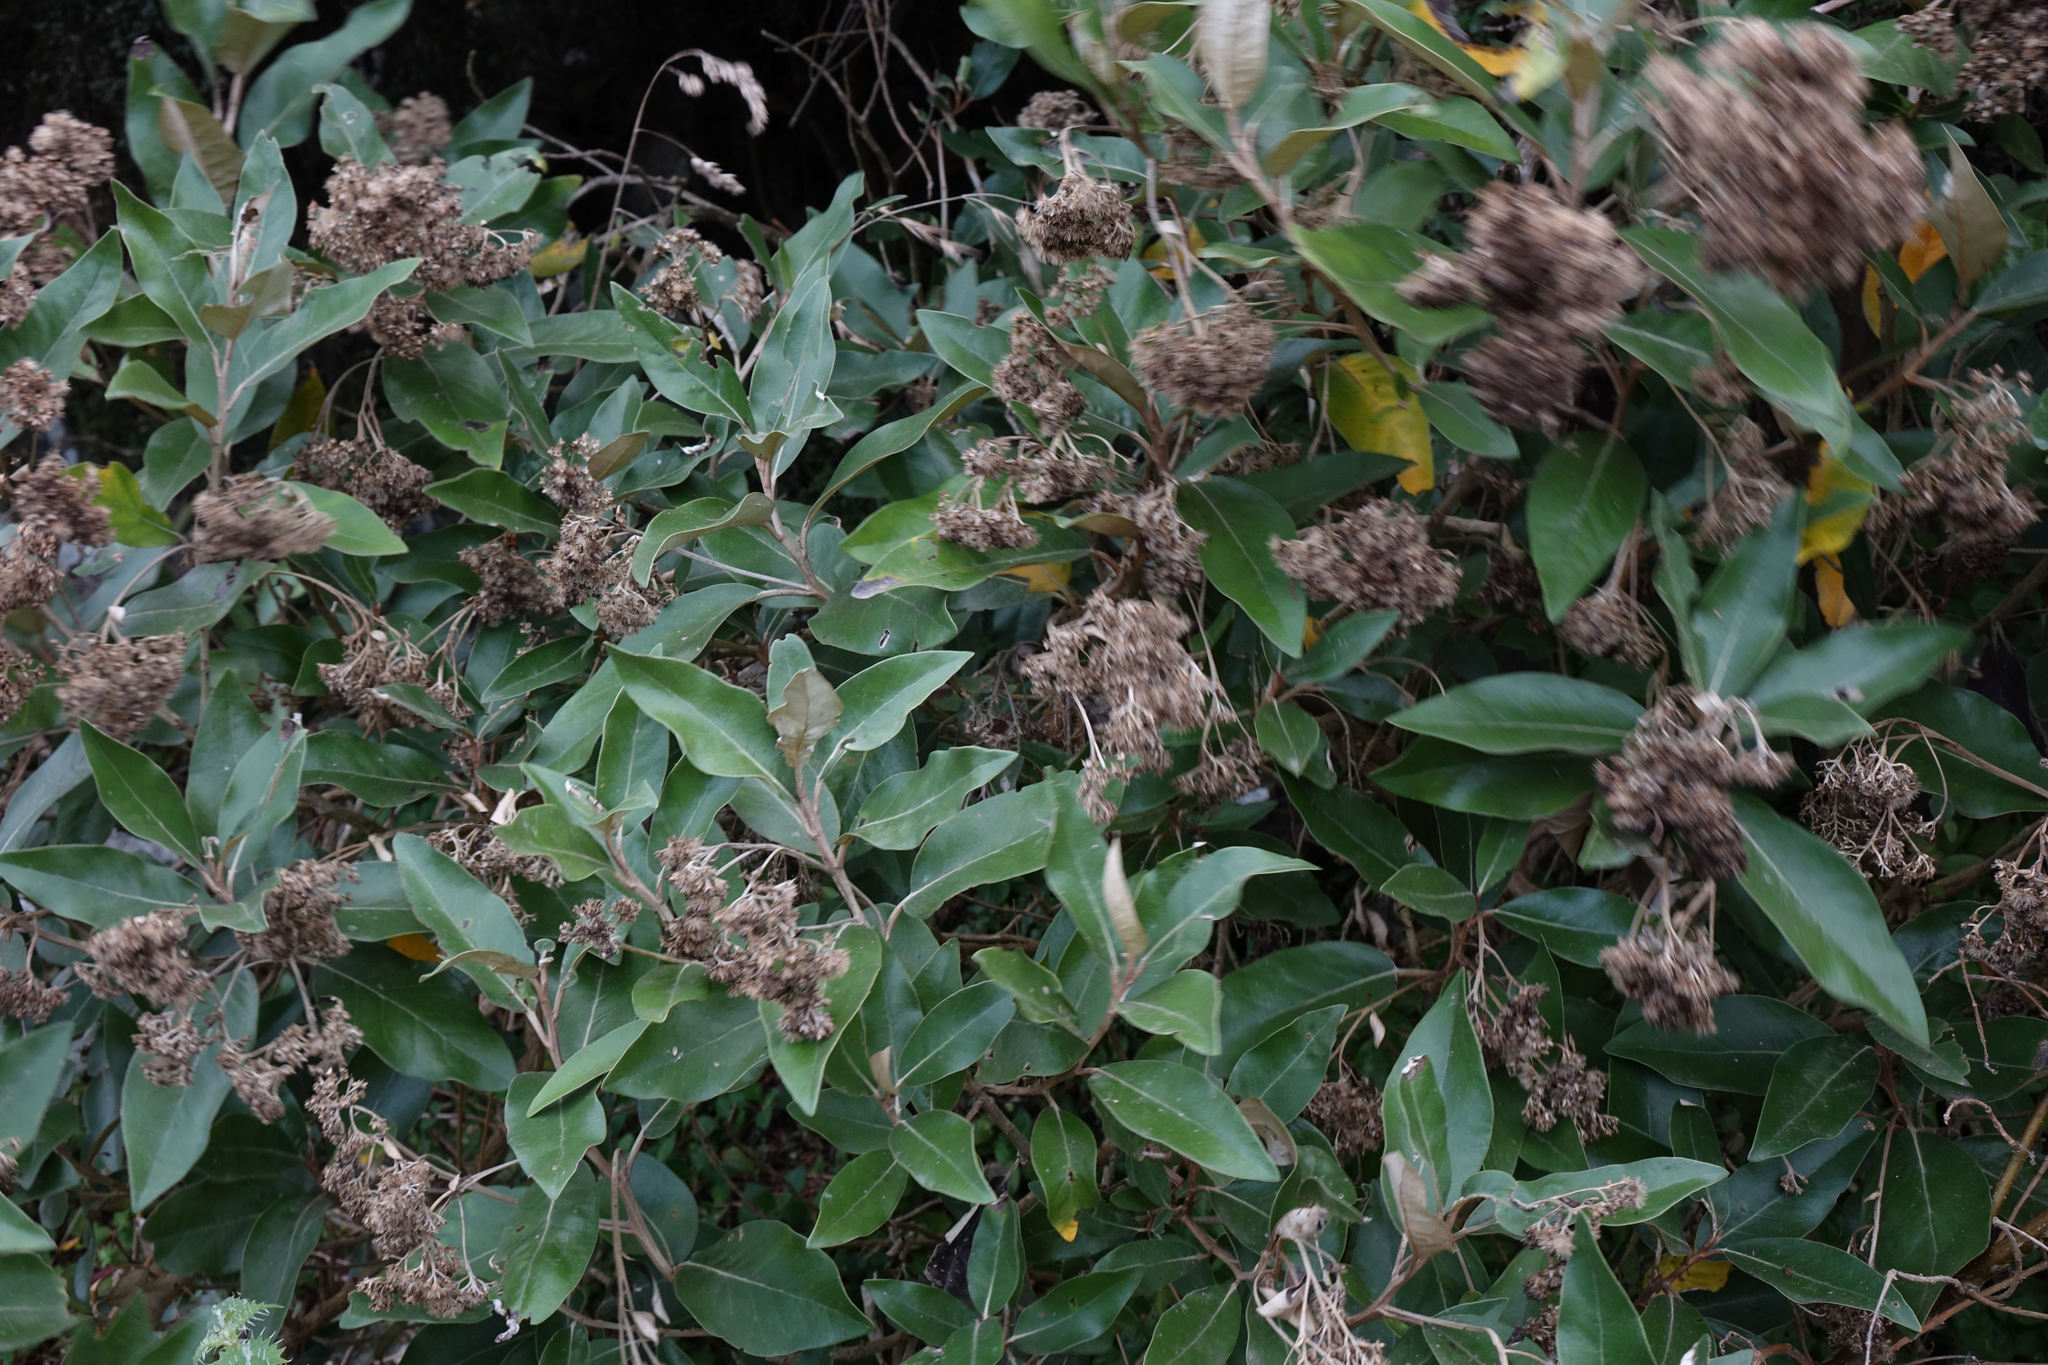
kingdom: Plantae
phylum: Tracheophyta
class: Magnoliopsida
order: Asterales
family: Asteraceae
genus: Olearia
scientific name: Olearia avicenniifolia
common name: Mangrove-leaf daisybush
